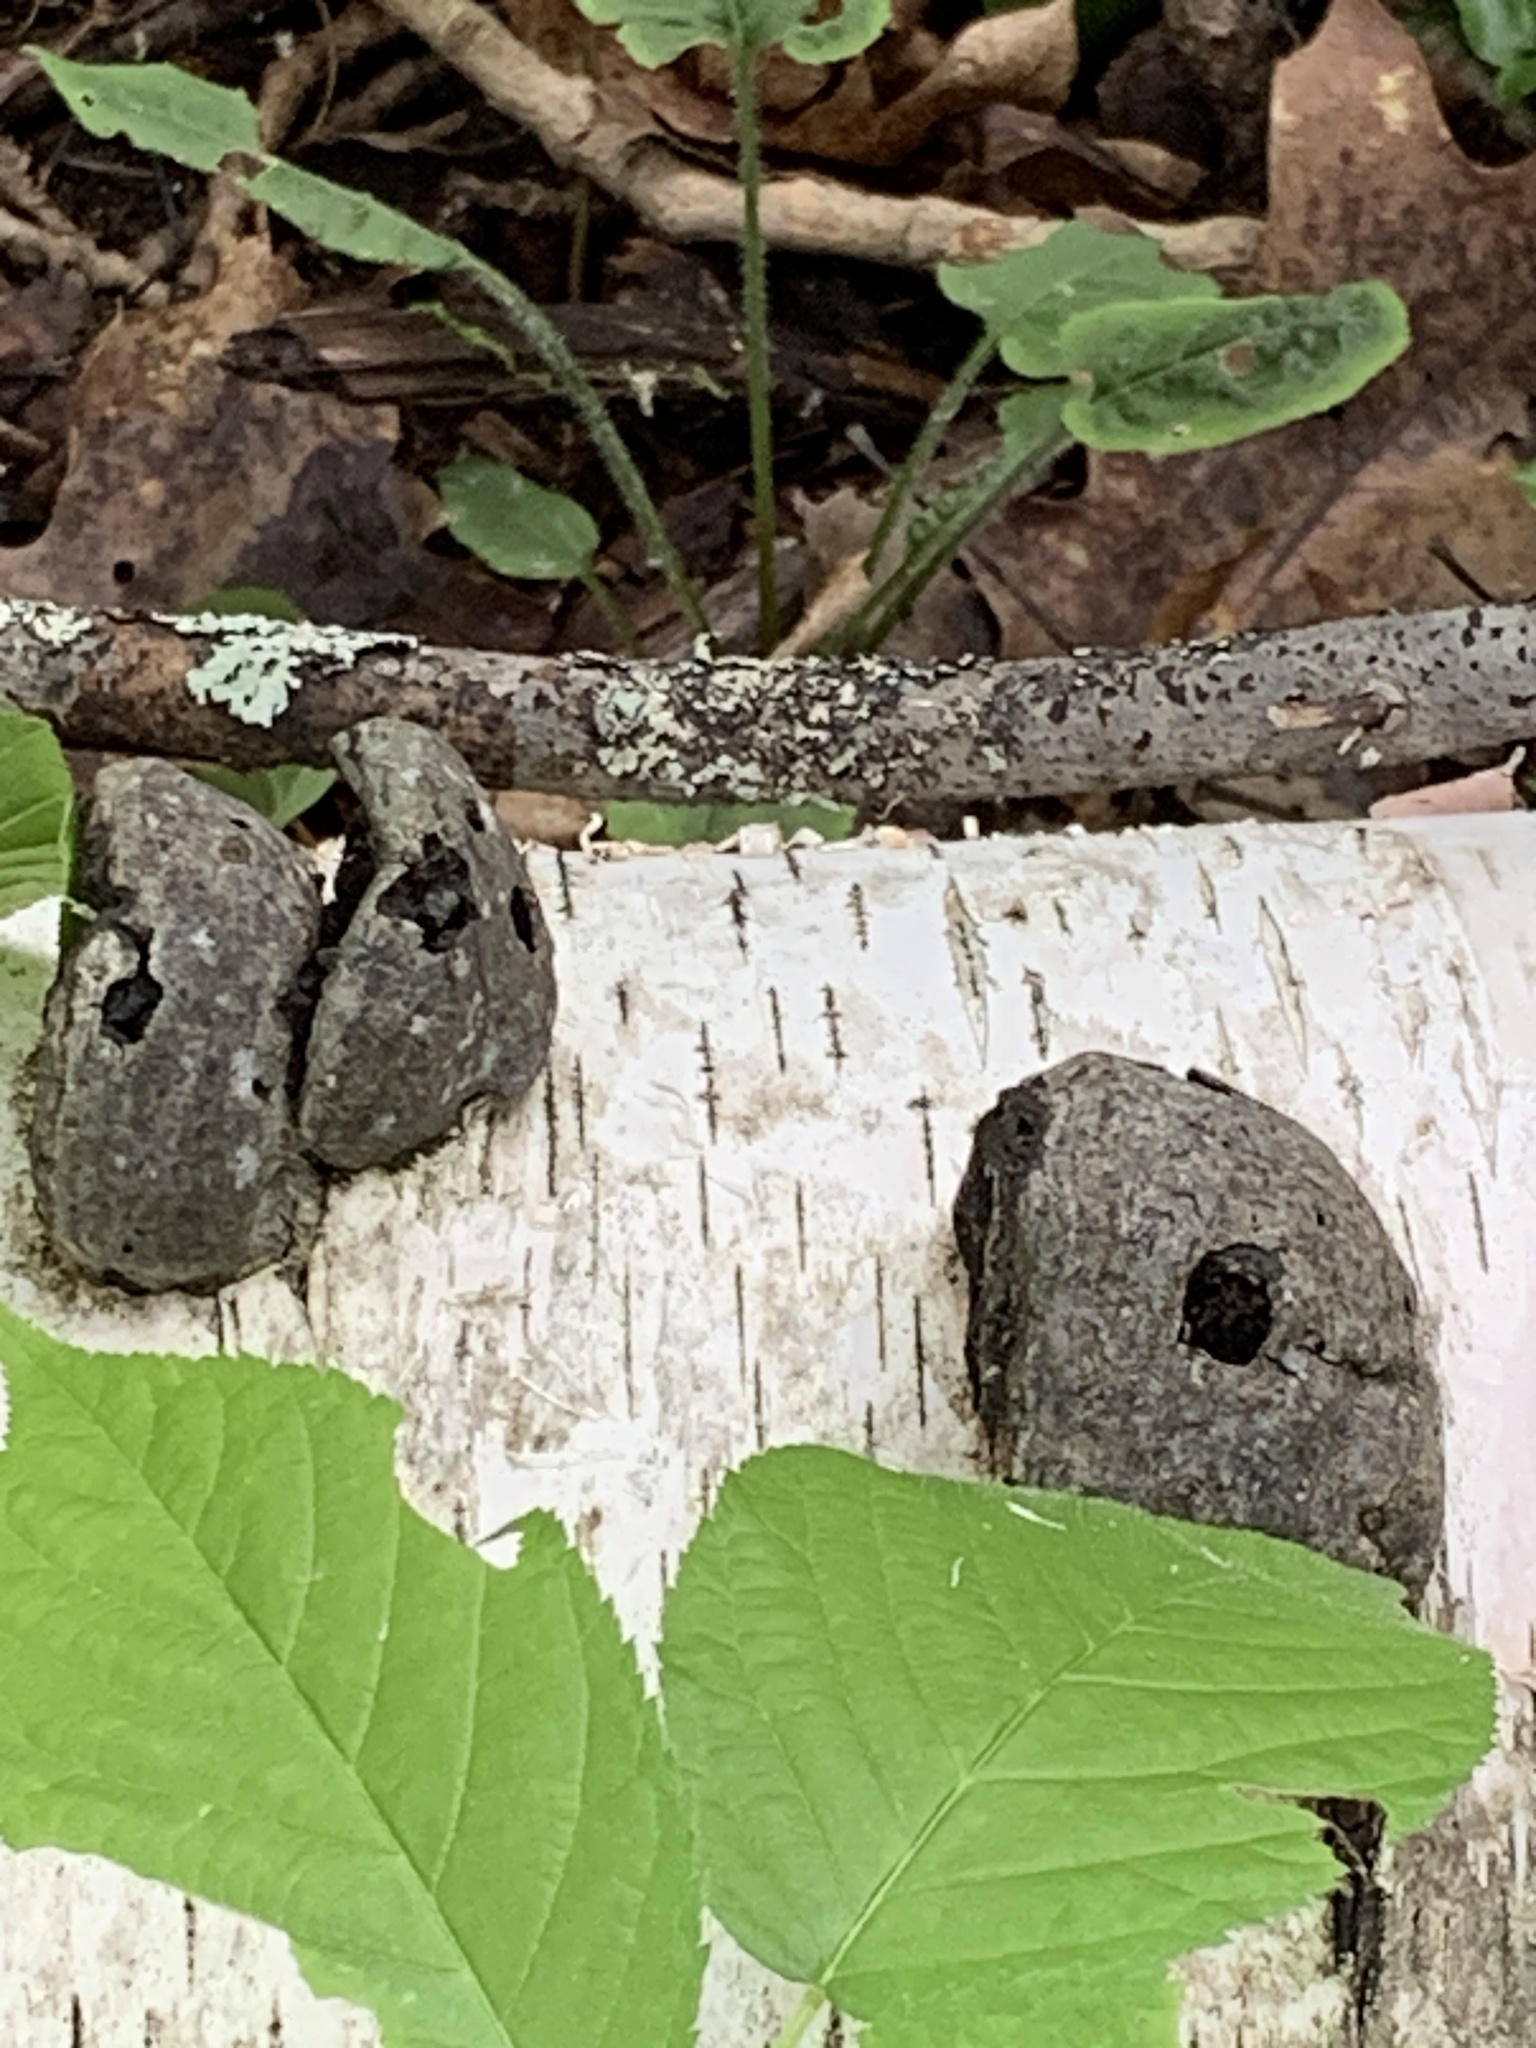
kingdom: Fungi
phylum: Basidiomycota
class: Agaricomycetes
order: Polyporales
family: Polyporaceae
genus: Fomes
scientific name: Fomes fomentarius
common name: Hoof fungus
